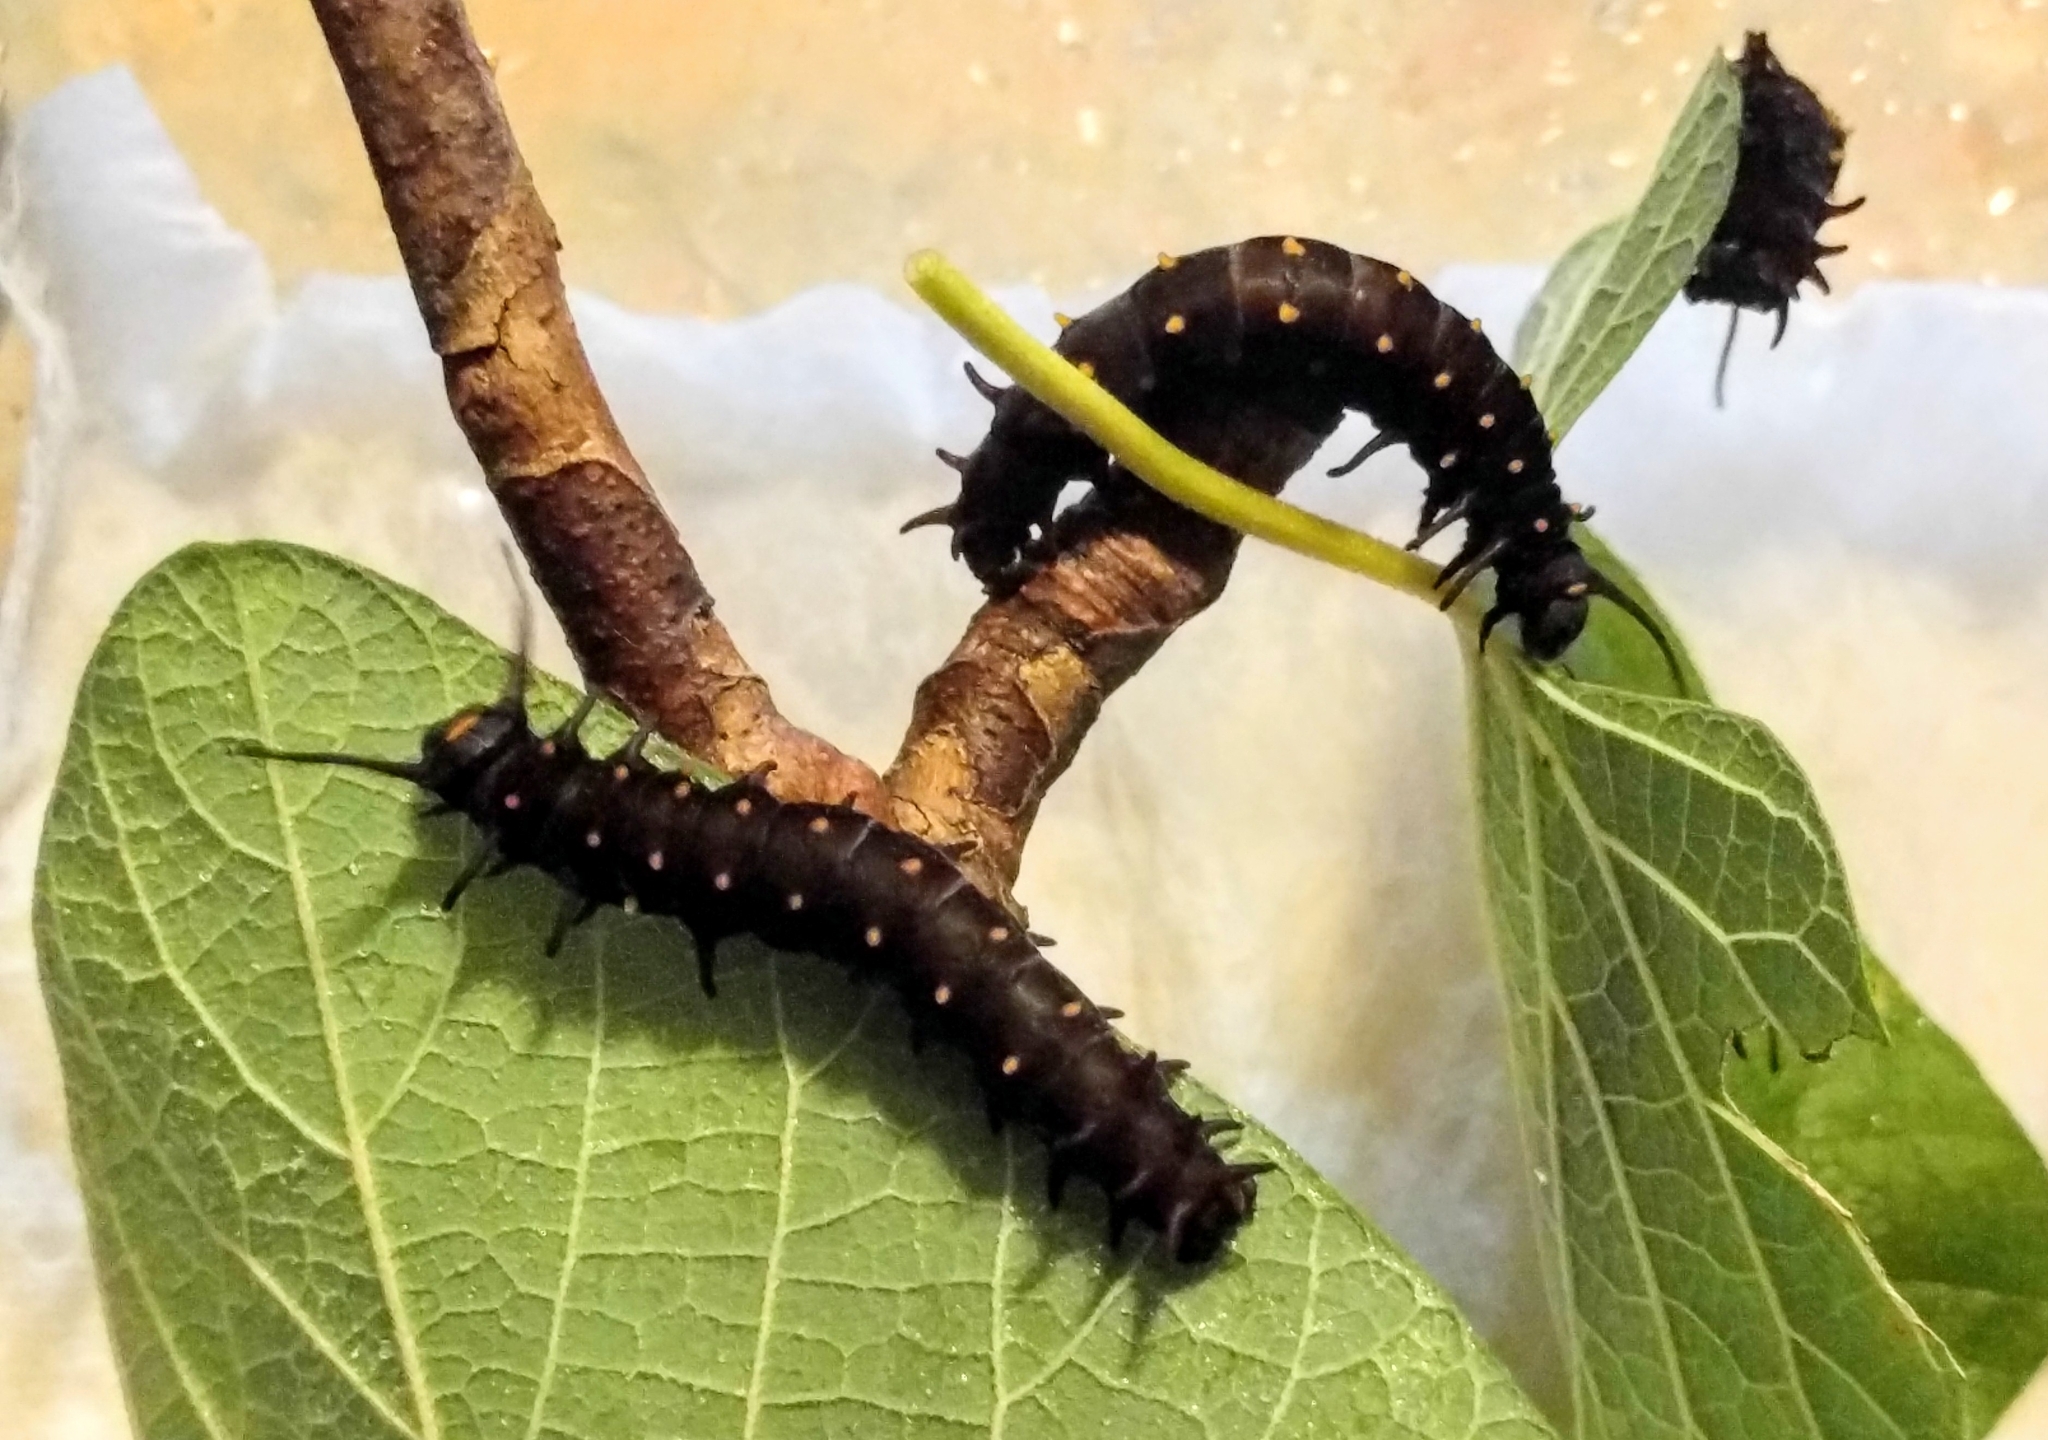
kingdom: Animalia
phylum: Arthropoda
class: Insecta
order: Lepidoptera
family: Papilionidae
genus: Battus
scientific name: Battus philenor
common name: Pipevine swallowtail
